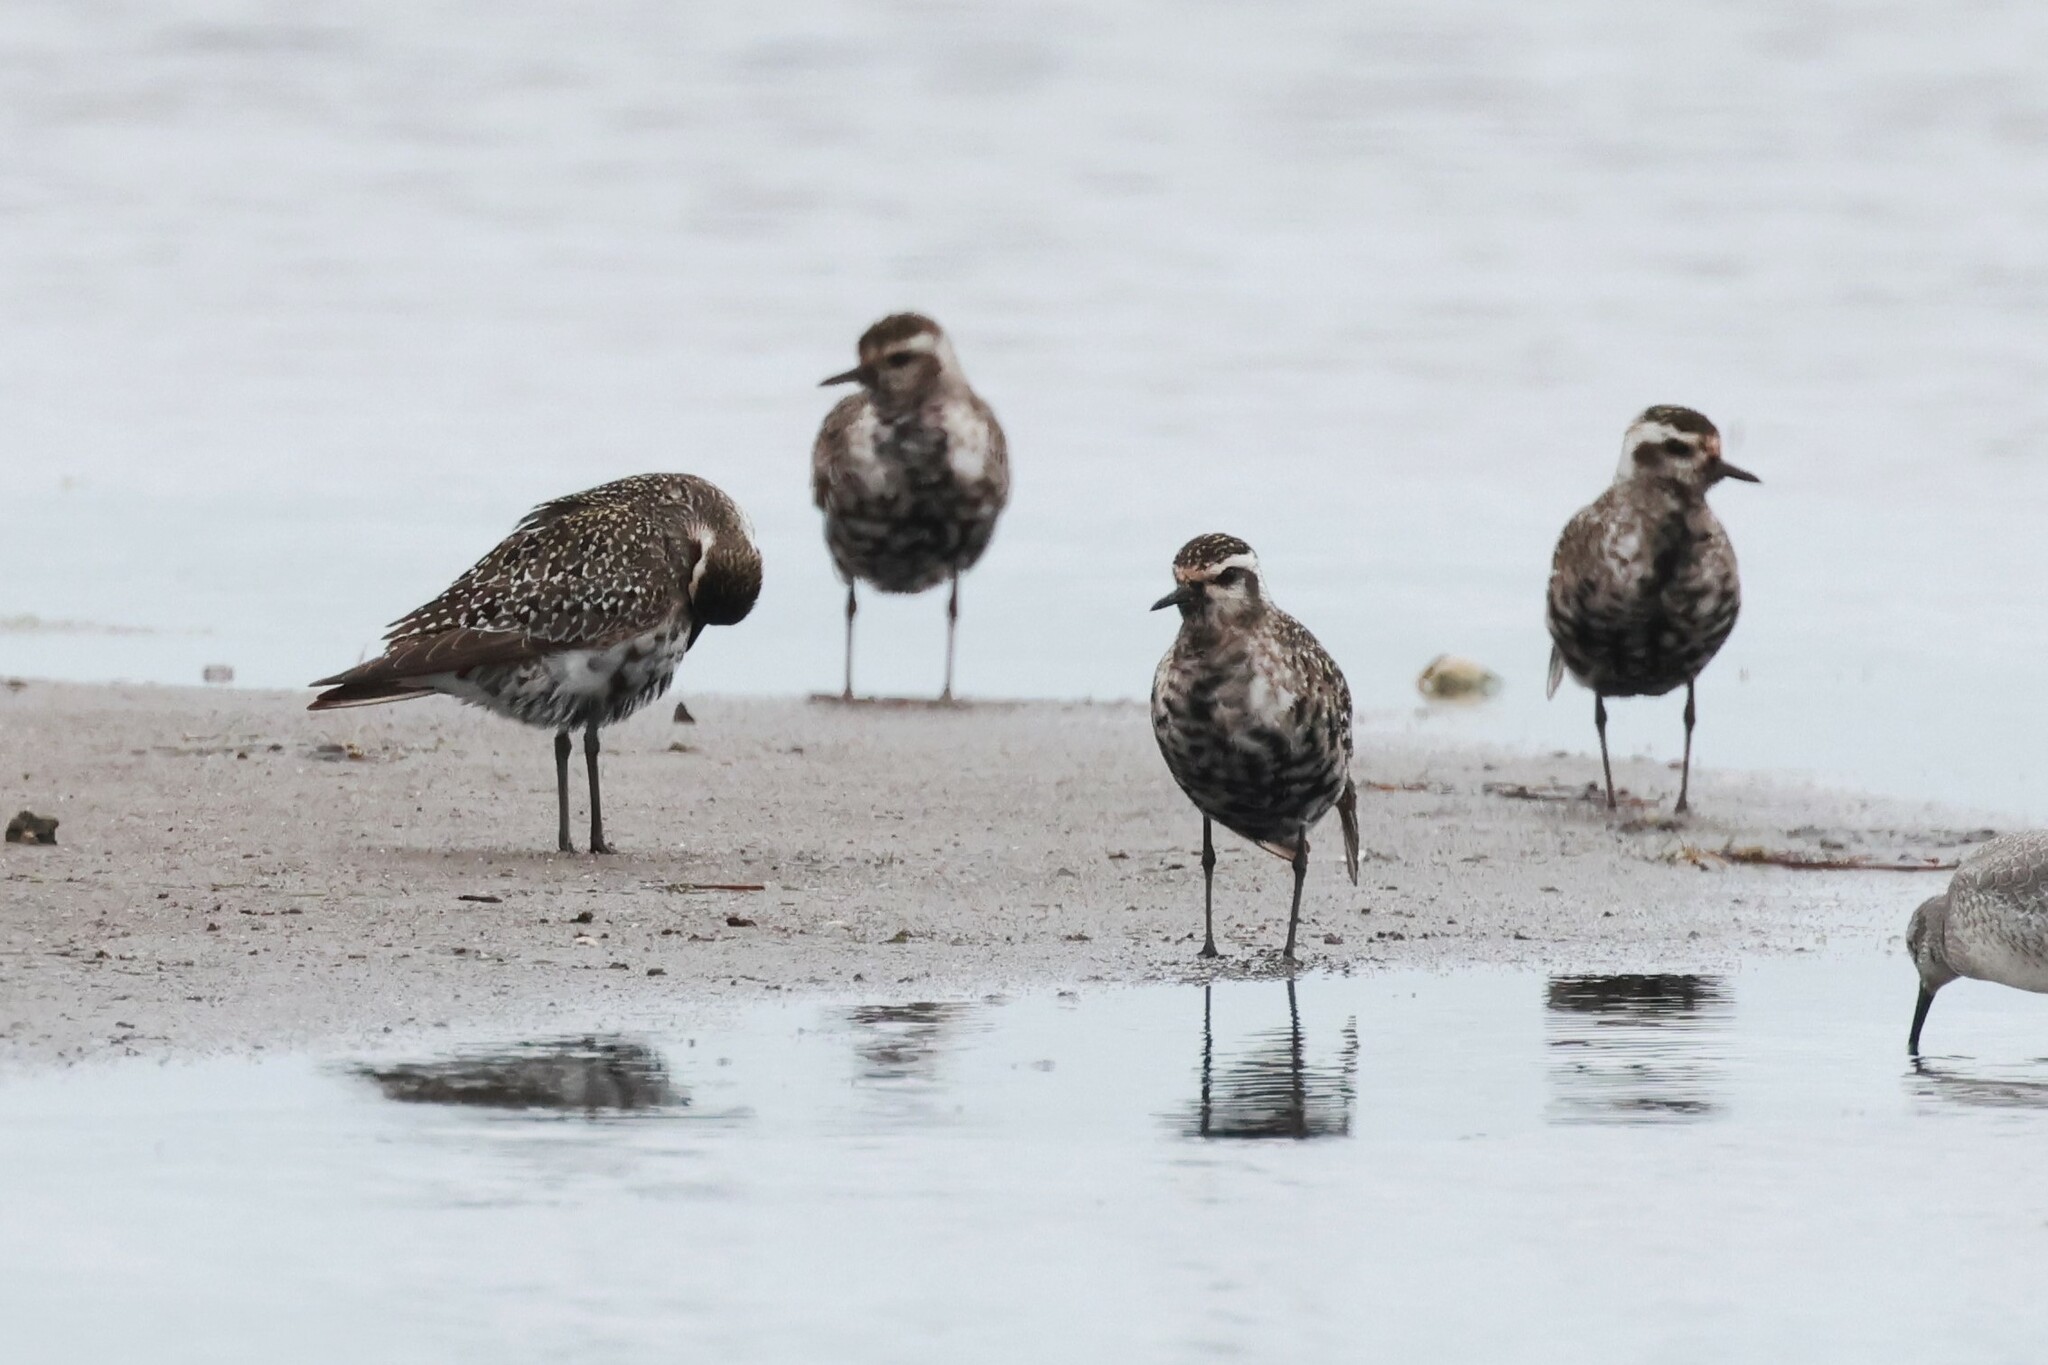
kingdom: Animalia
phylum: Chordata
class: Aves
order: Charadriiformes
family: Charadriidae
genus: Pluvialis
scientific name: Pluvialis dominica
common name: American golden plover
